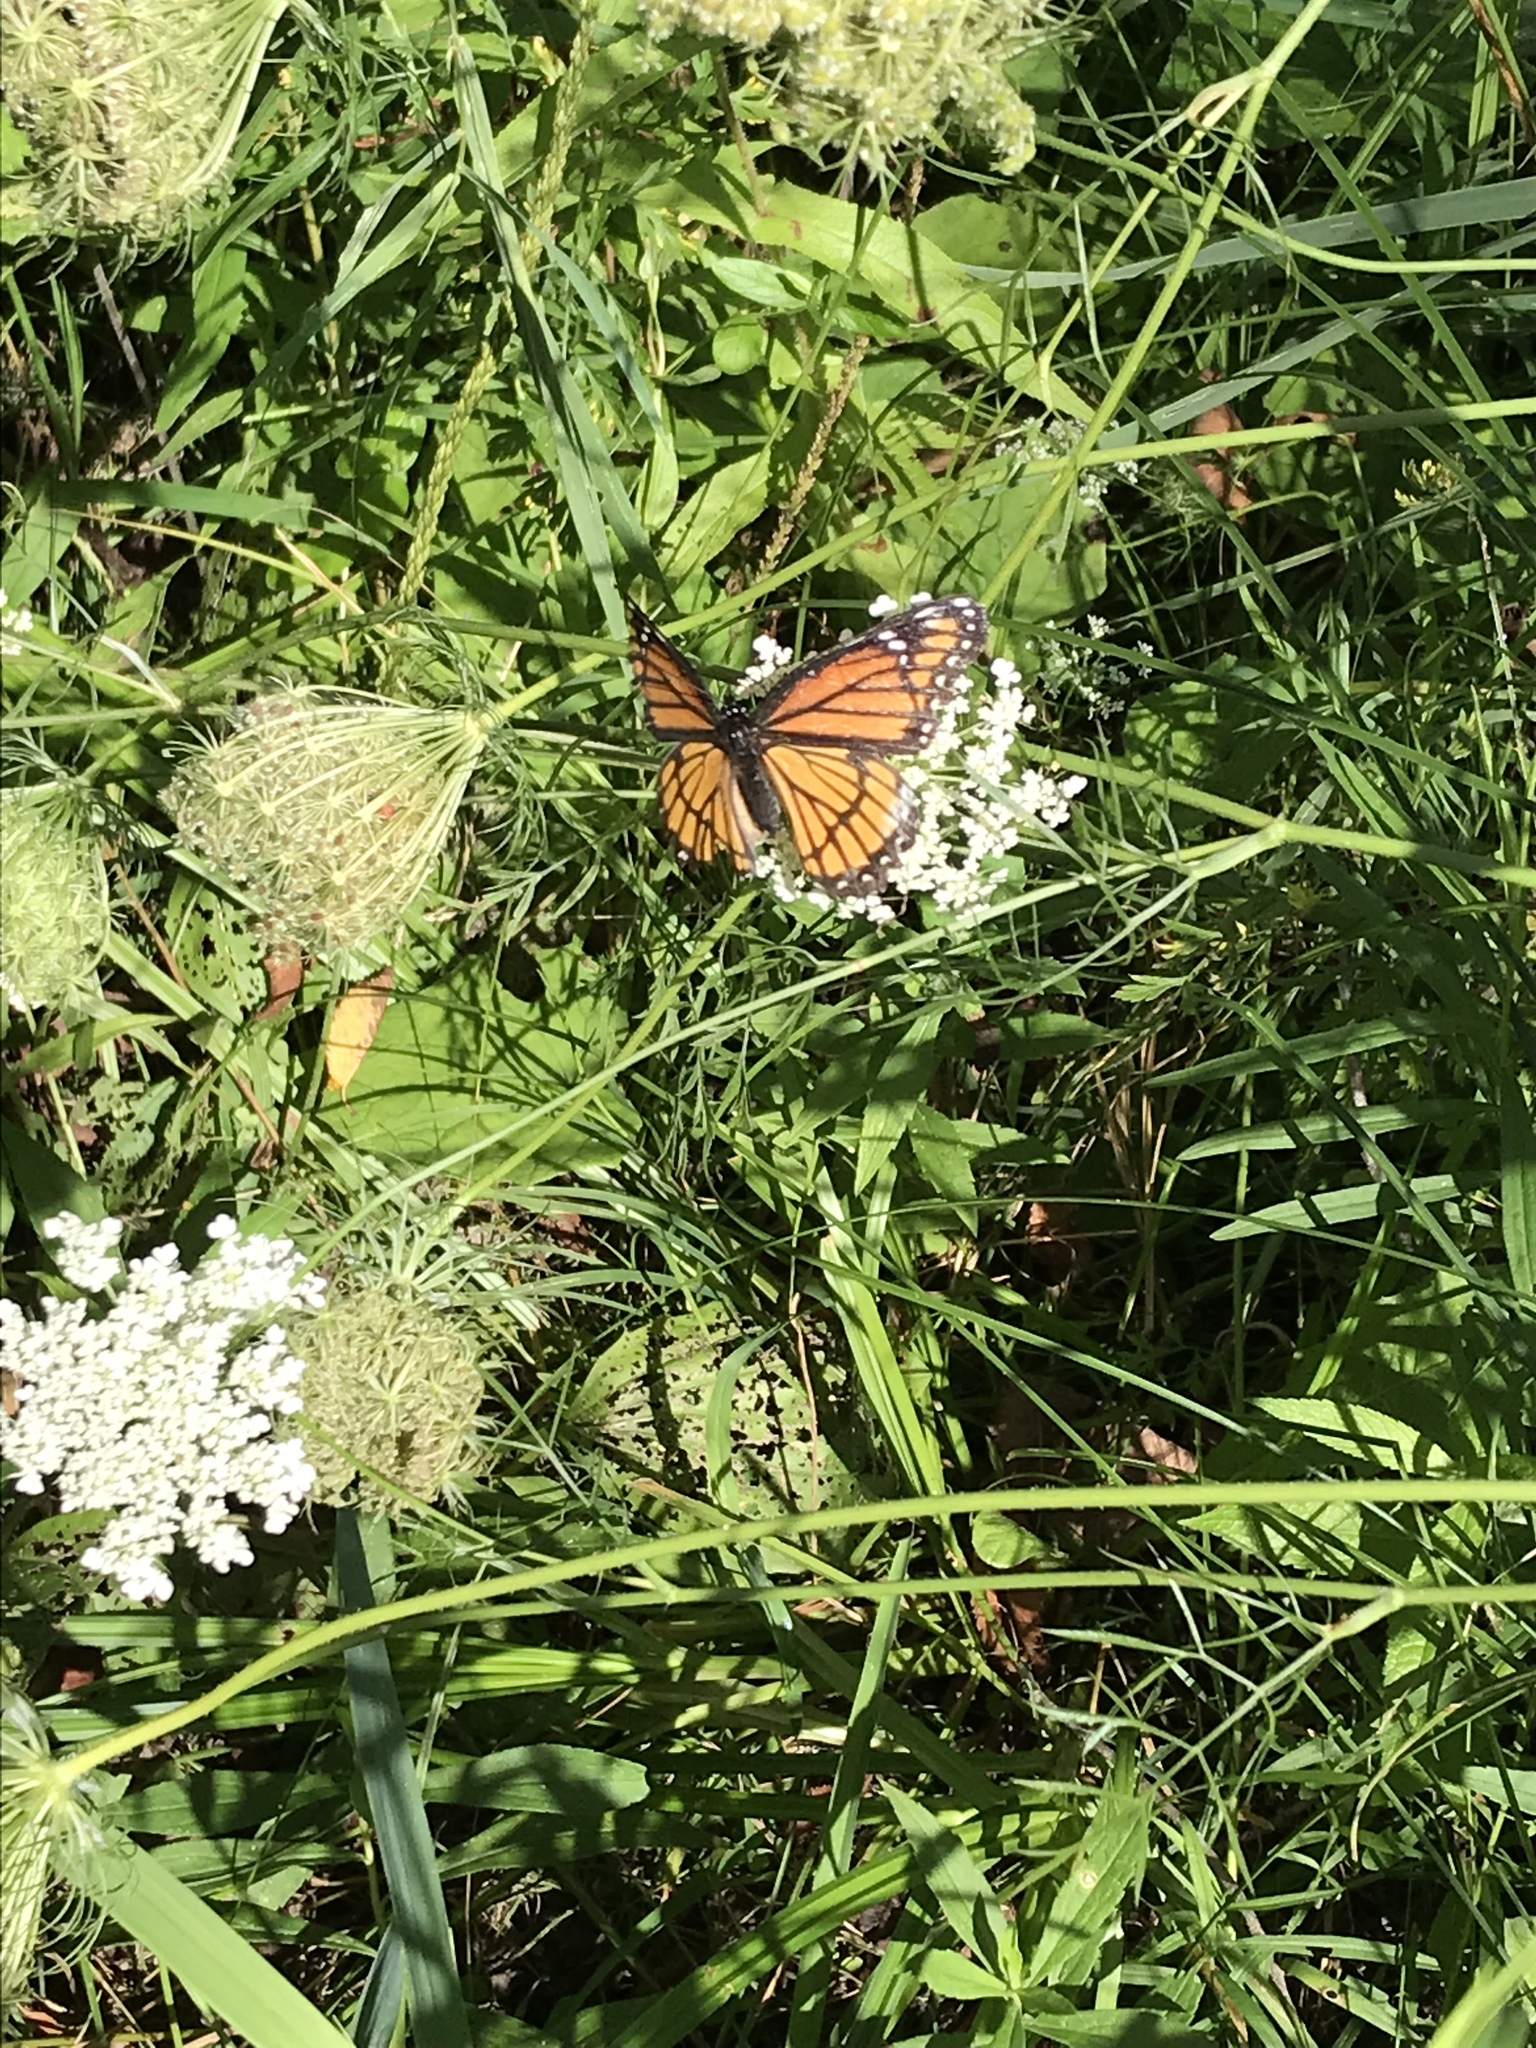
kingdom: Animalia
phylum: Arthropoda
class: Insecta
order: Lepidoptera
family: Nymphalidae
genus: Limenitis
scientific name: Limenitis archippus
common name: Viceroy
